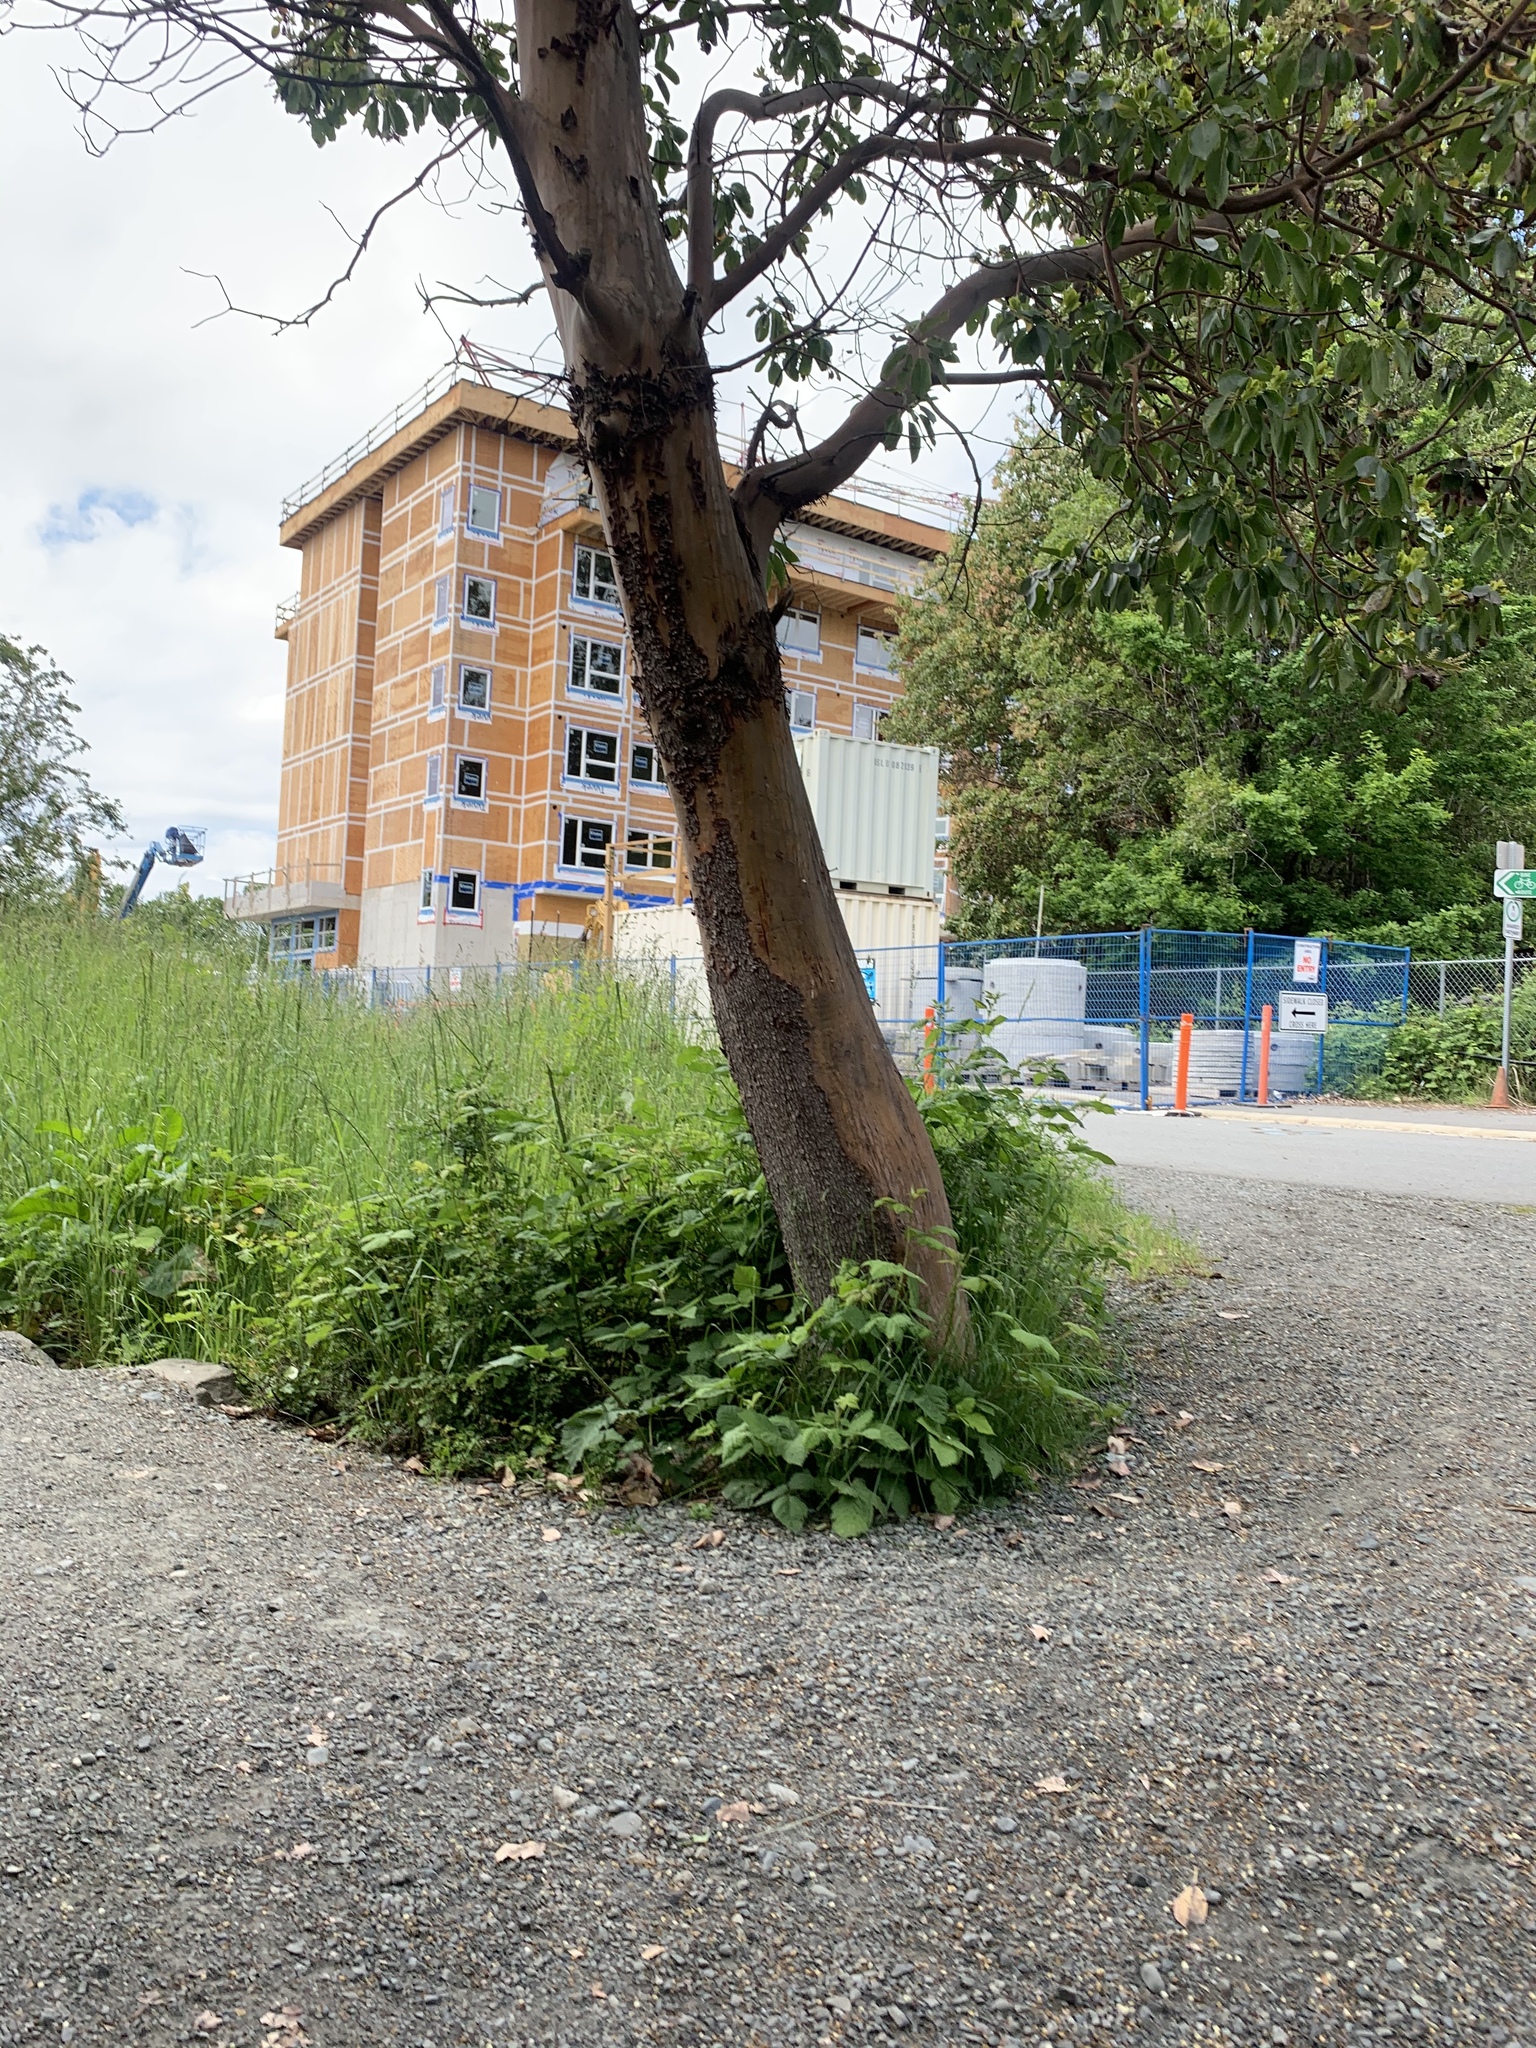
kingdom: Plantae
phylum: Tracheophyta
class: Magnoliopsida
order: Ericales
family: Ericaceae
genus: Arbutus
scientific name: Arbutus menziesii
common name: Pacific madrone
